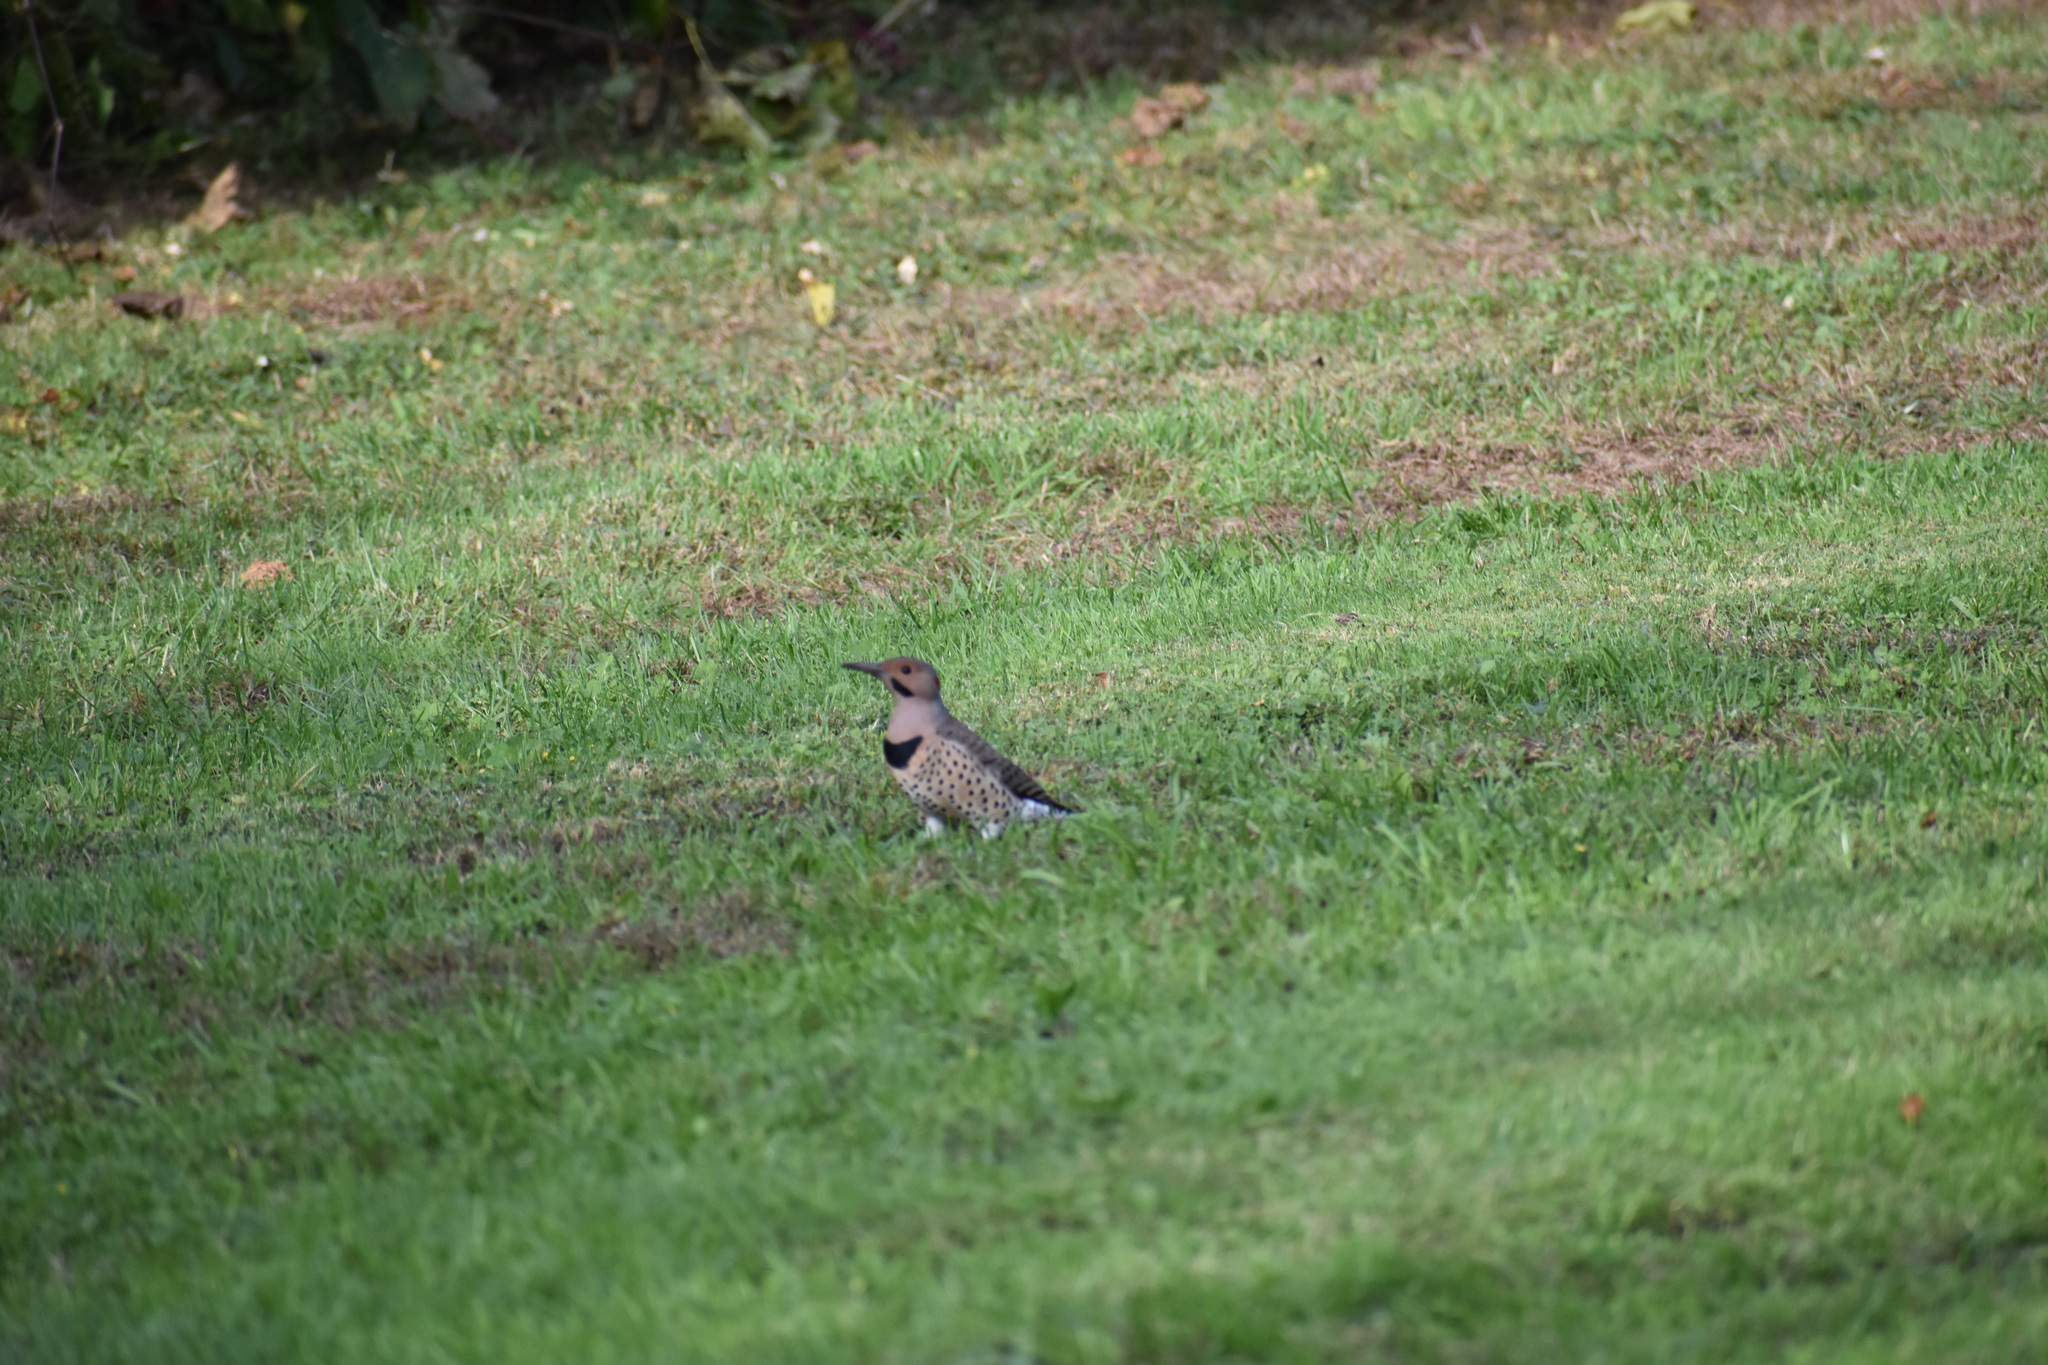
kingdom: Animalia
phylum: Chordata
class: Aves
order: Piciformes
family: Picidae
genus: Colaptes
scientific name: Colaptes auratus
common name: Northern flicker
